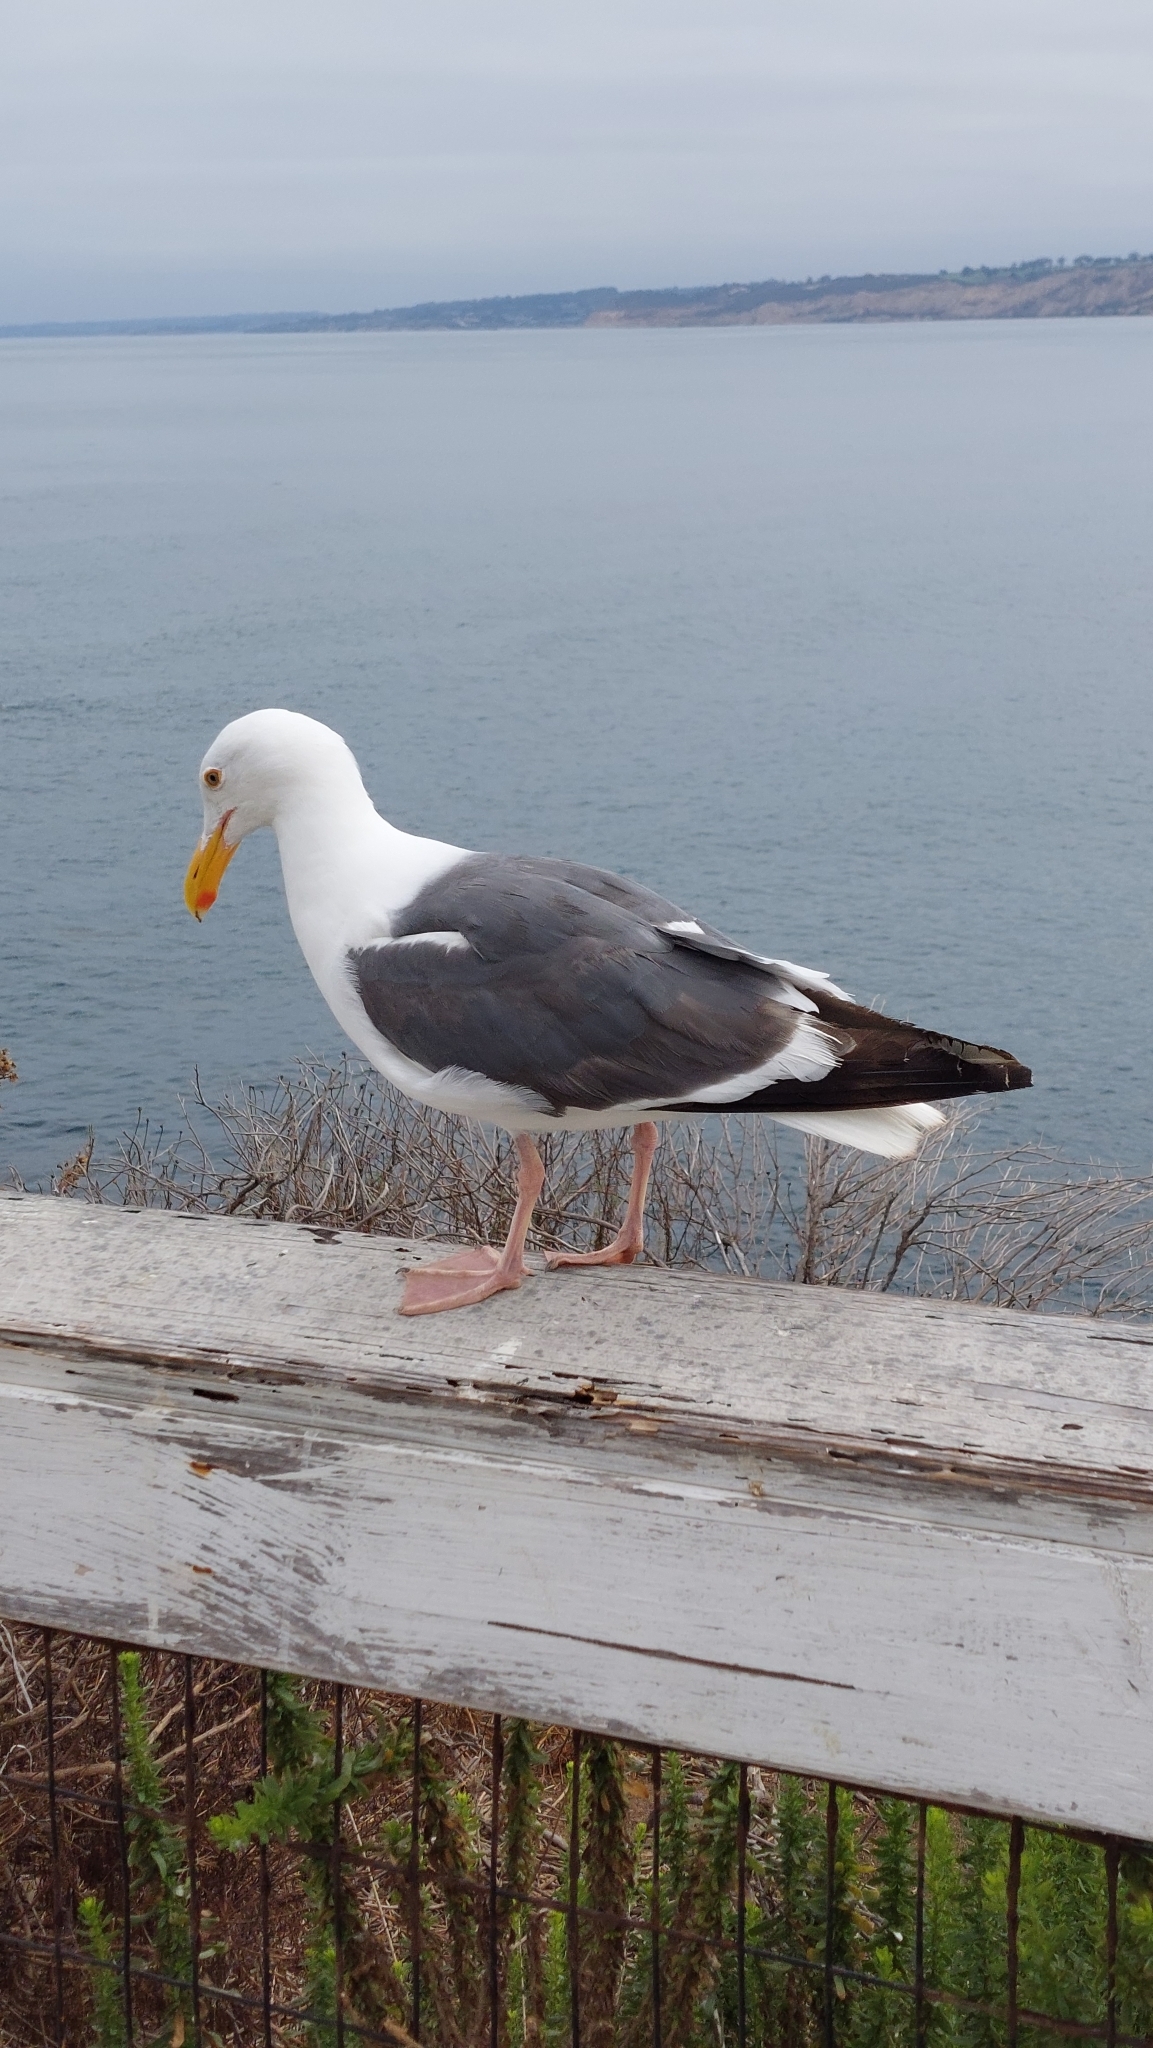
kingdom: Animalia
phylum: Chordata
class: Aves
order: Charadriiformes
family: Laridae
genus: Larus
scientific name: Larus occidentalis
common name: Western gull
